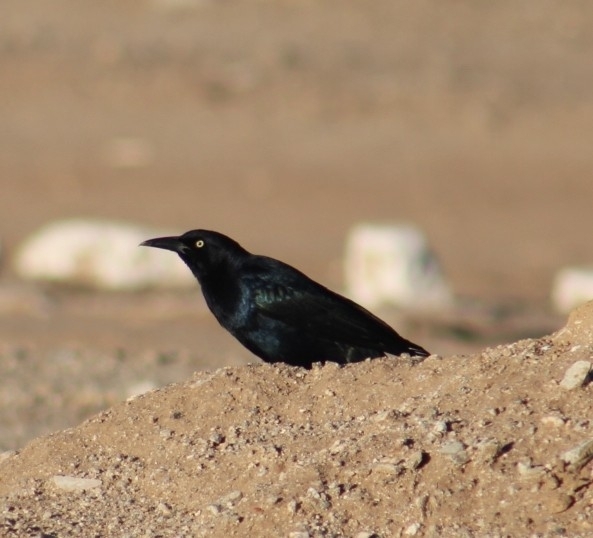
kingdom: Animalia
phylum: Chordata
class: Aves
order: Passeriformes
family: Icteridae
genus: Quiscalus
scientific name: Quiscalus mexicanus
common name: Great-tailed grackle
